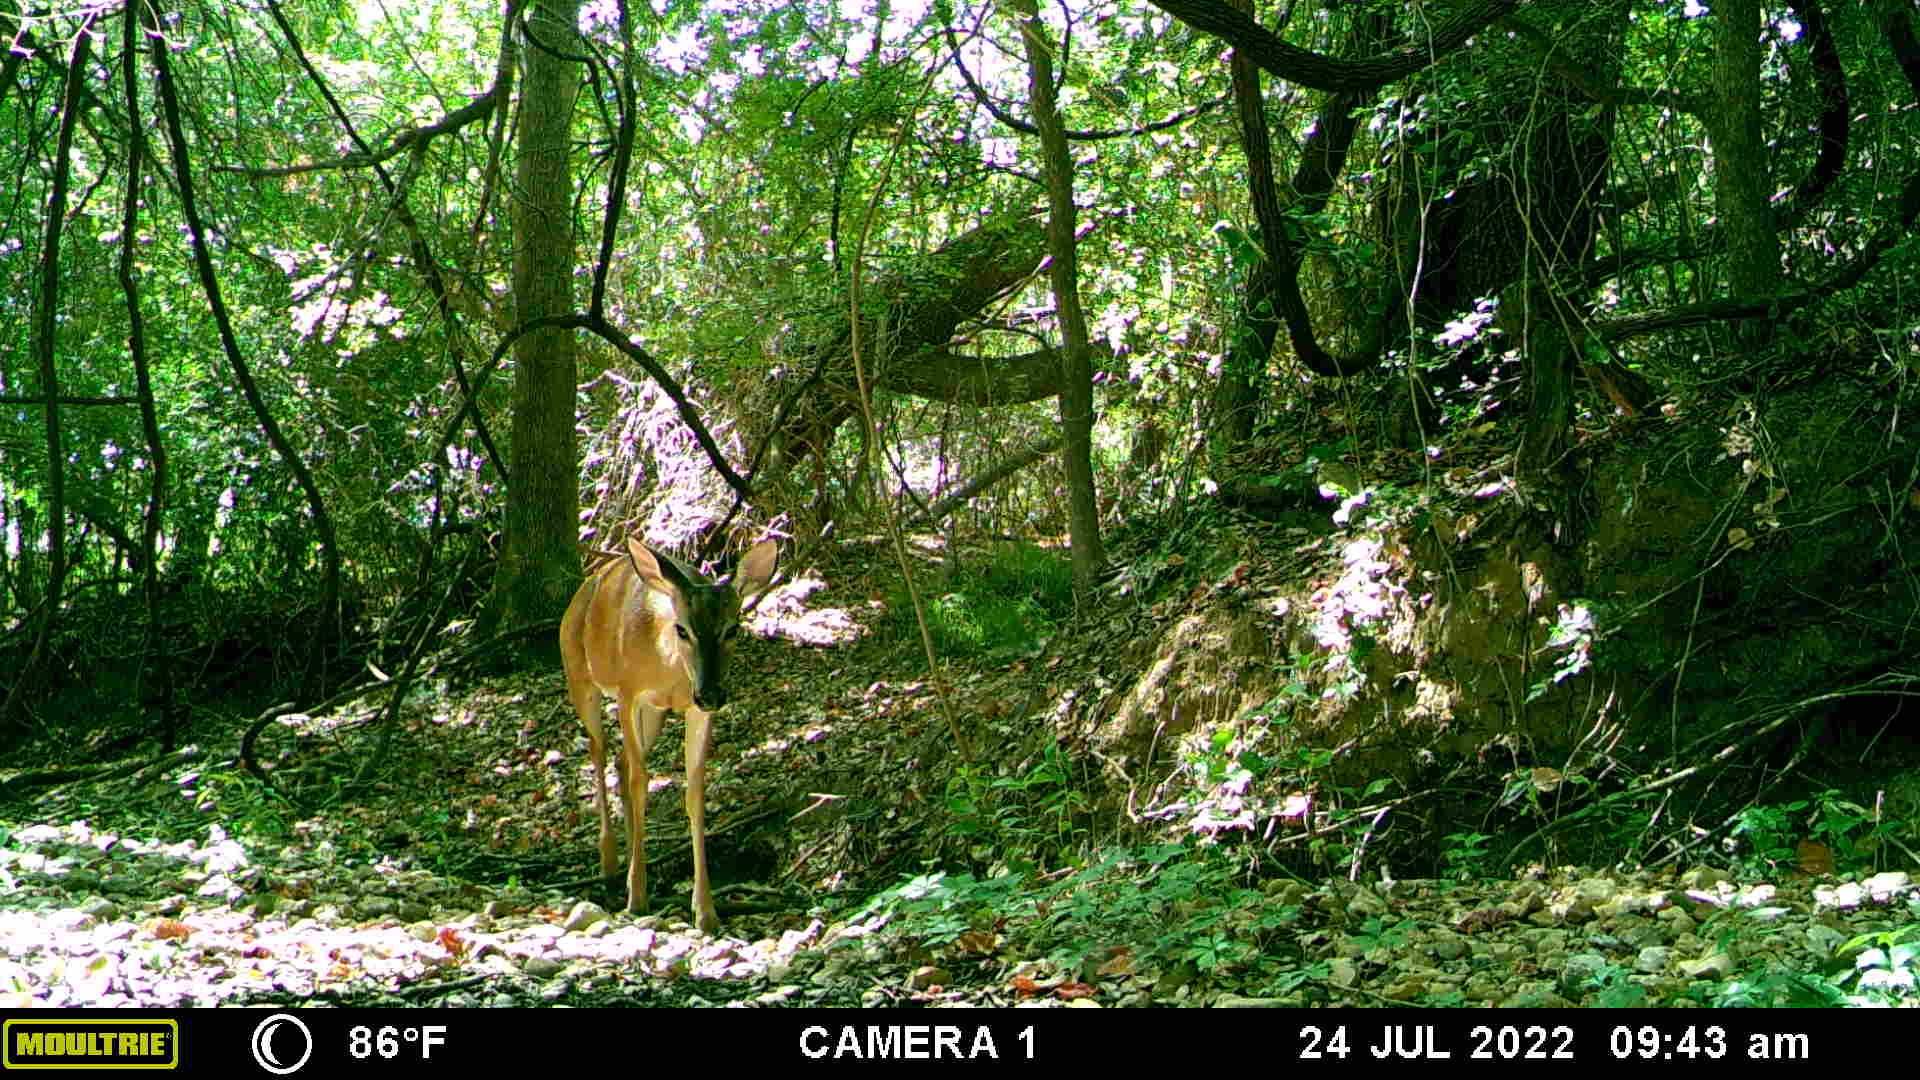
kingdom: Animalia
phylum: Chordata
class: Mammalia
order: Artiodactyla
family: Cervidae
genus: Odocoileus
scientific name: Odocoileus virginianus
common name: White-tailed deer
